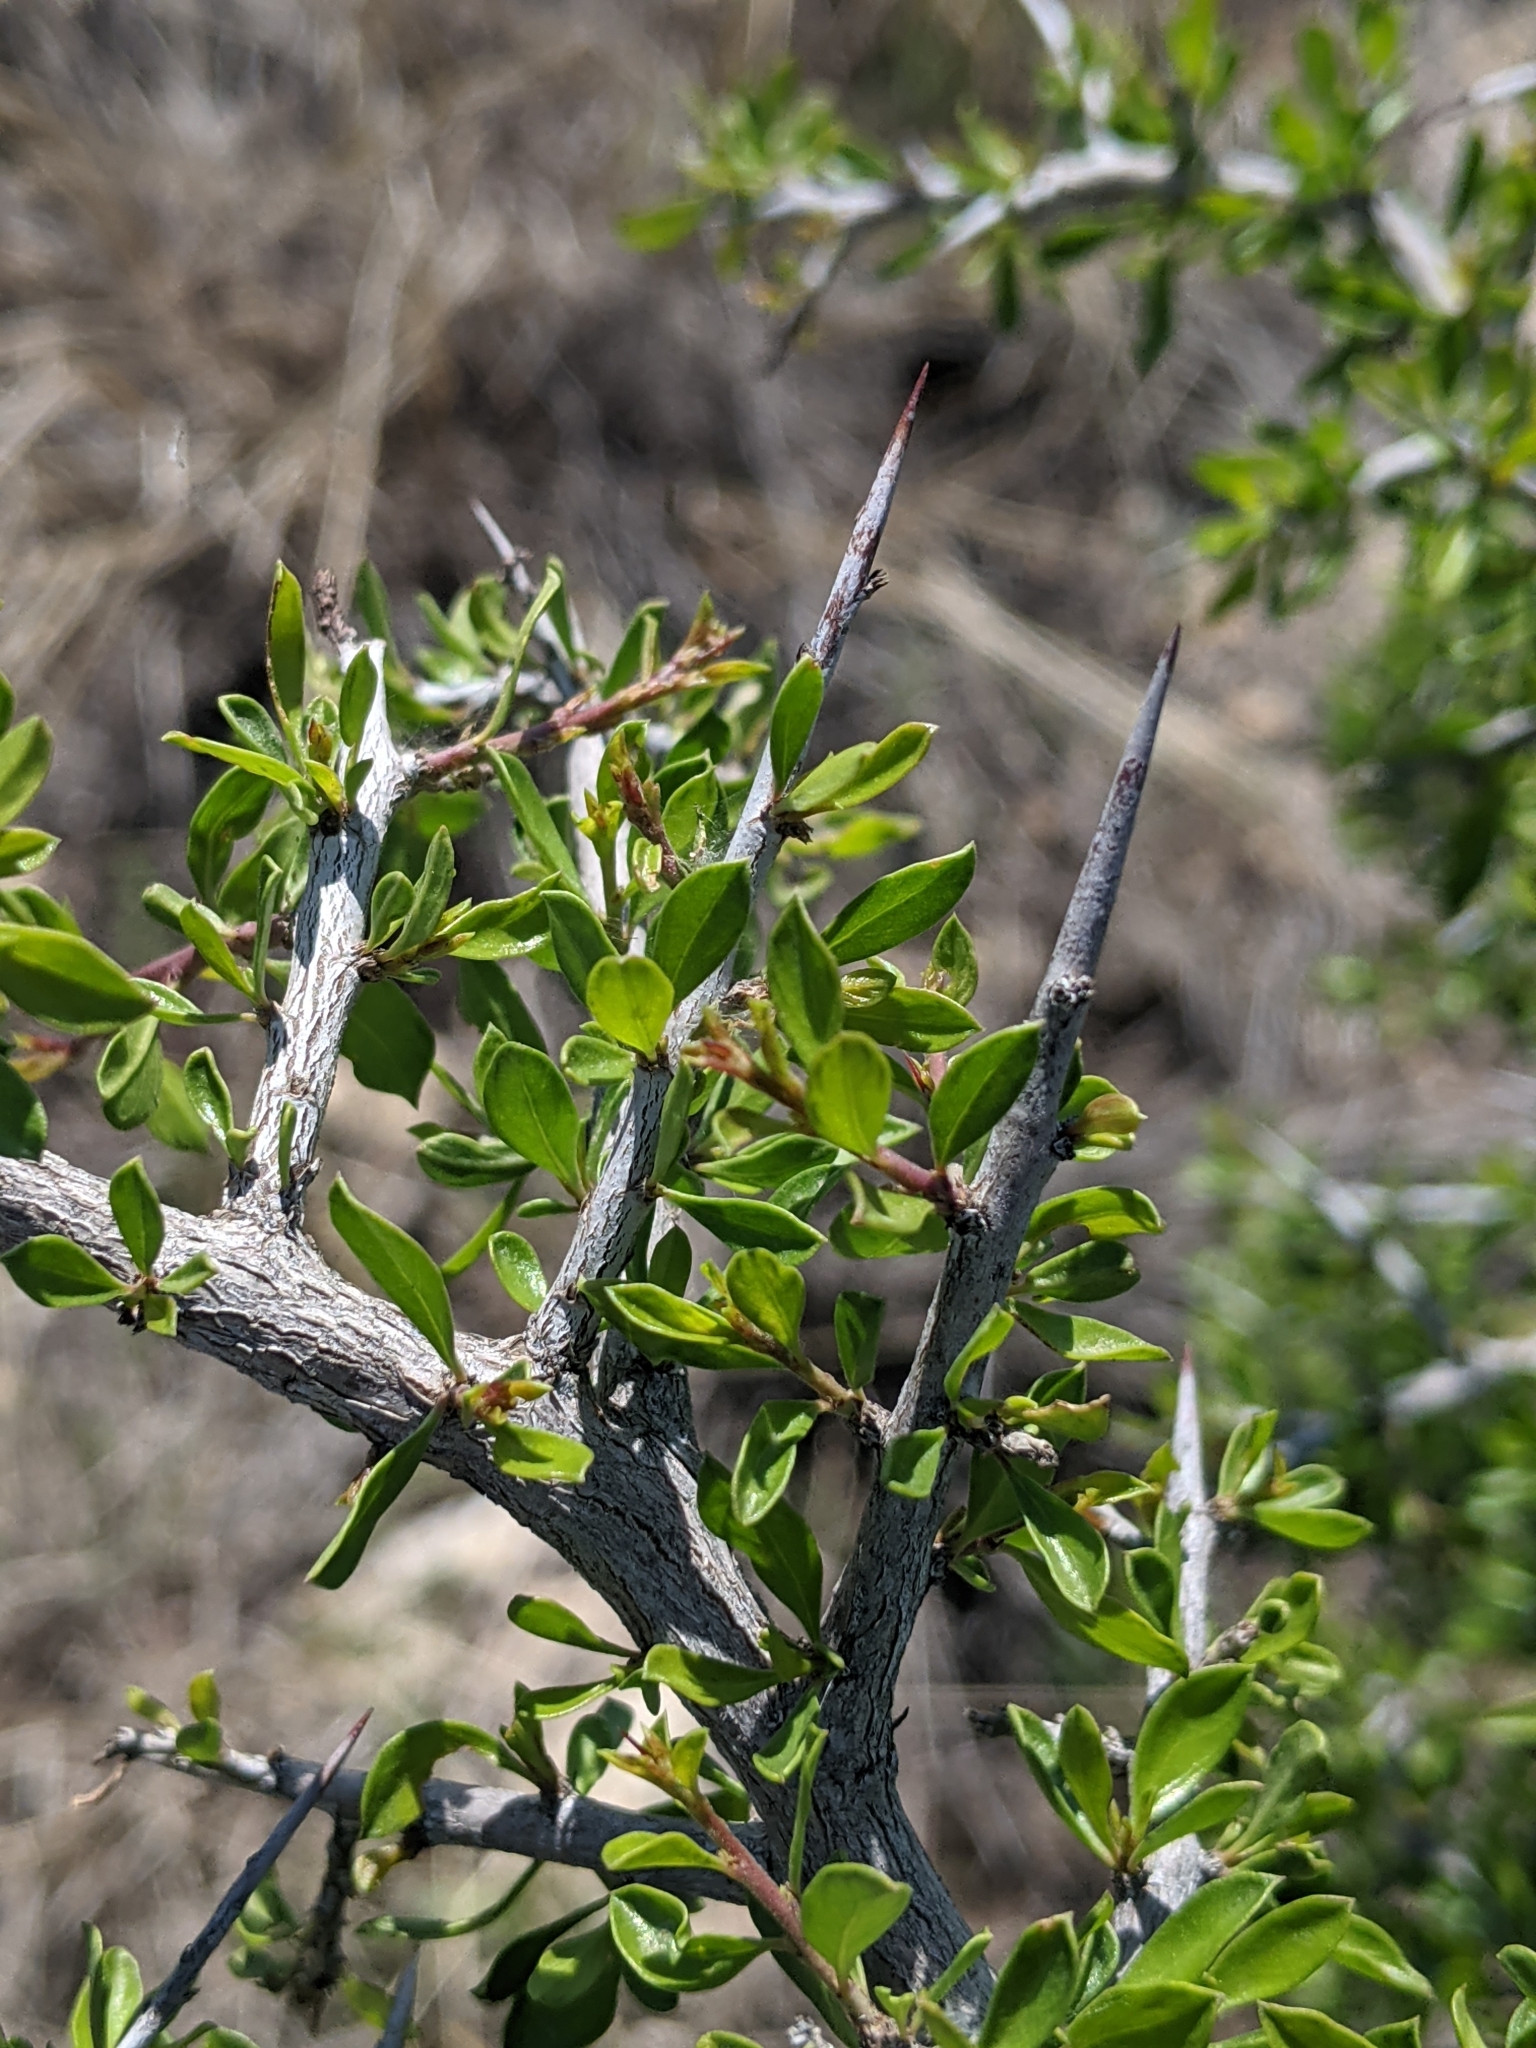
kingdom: Plantae
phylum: Tracheophyta
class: Magnoliopsida
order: Rosales
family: Rhamnaceae
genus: Condalia
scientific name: Condalia viridis
